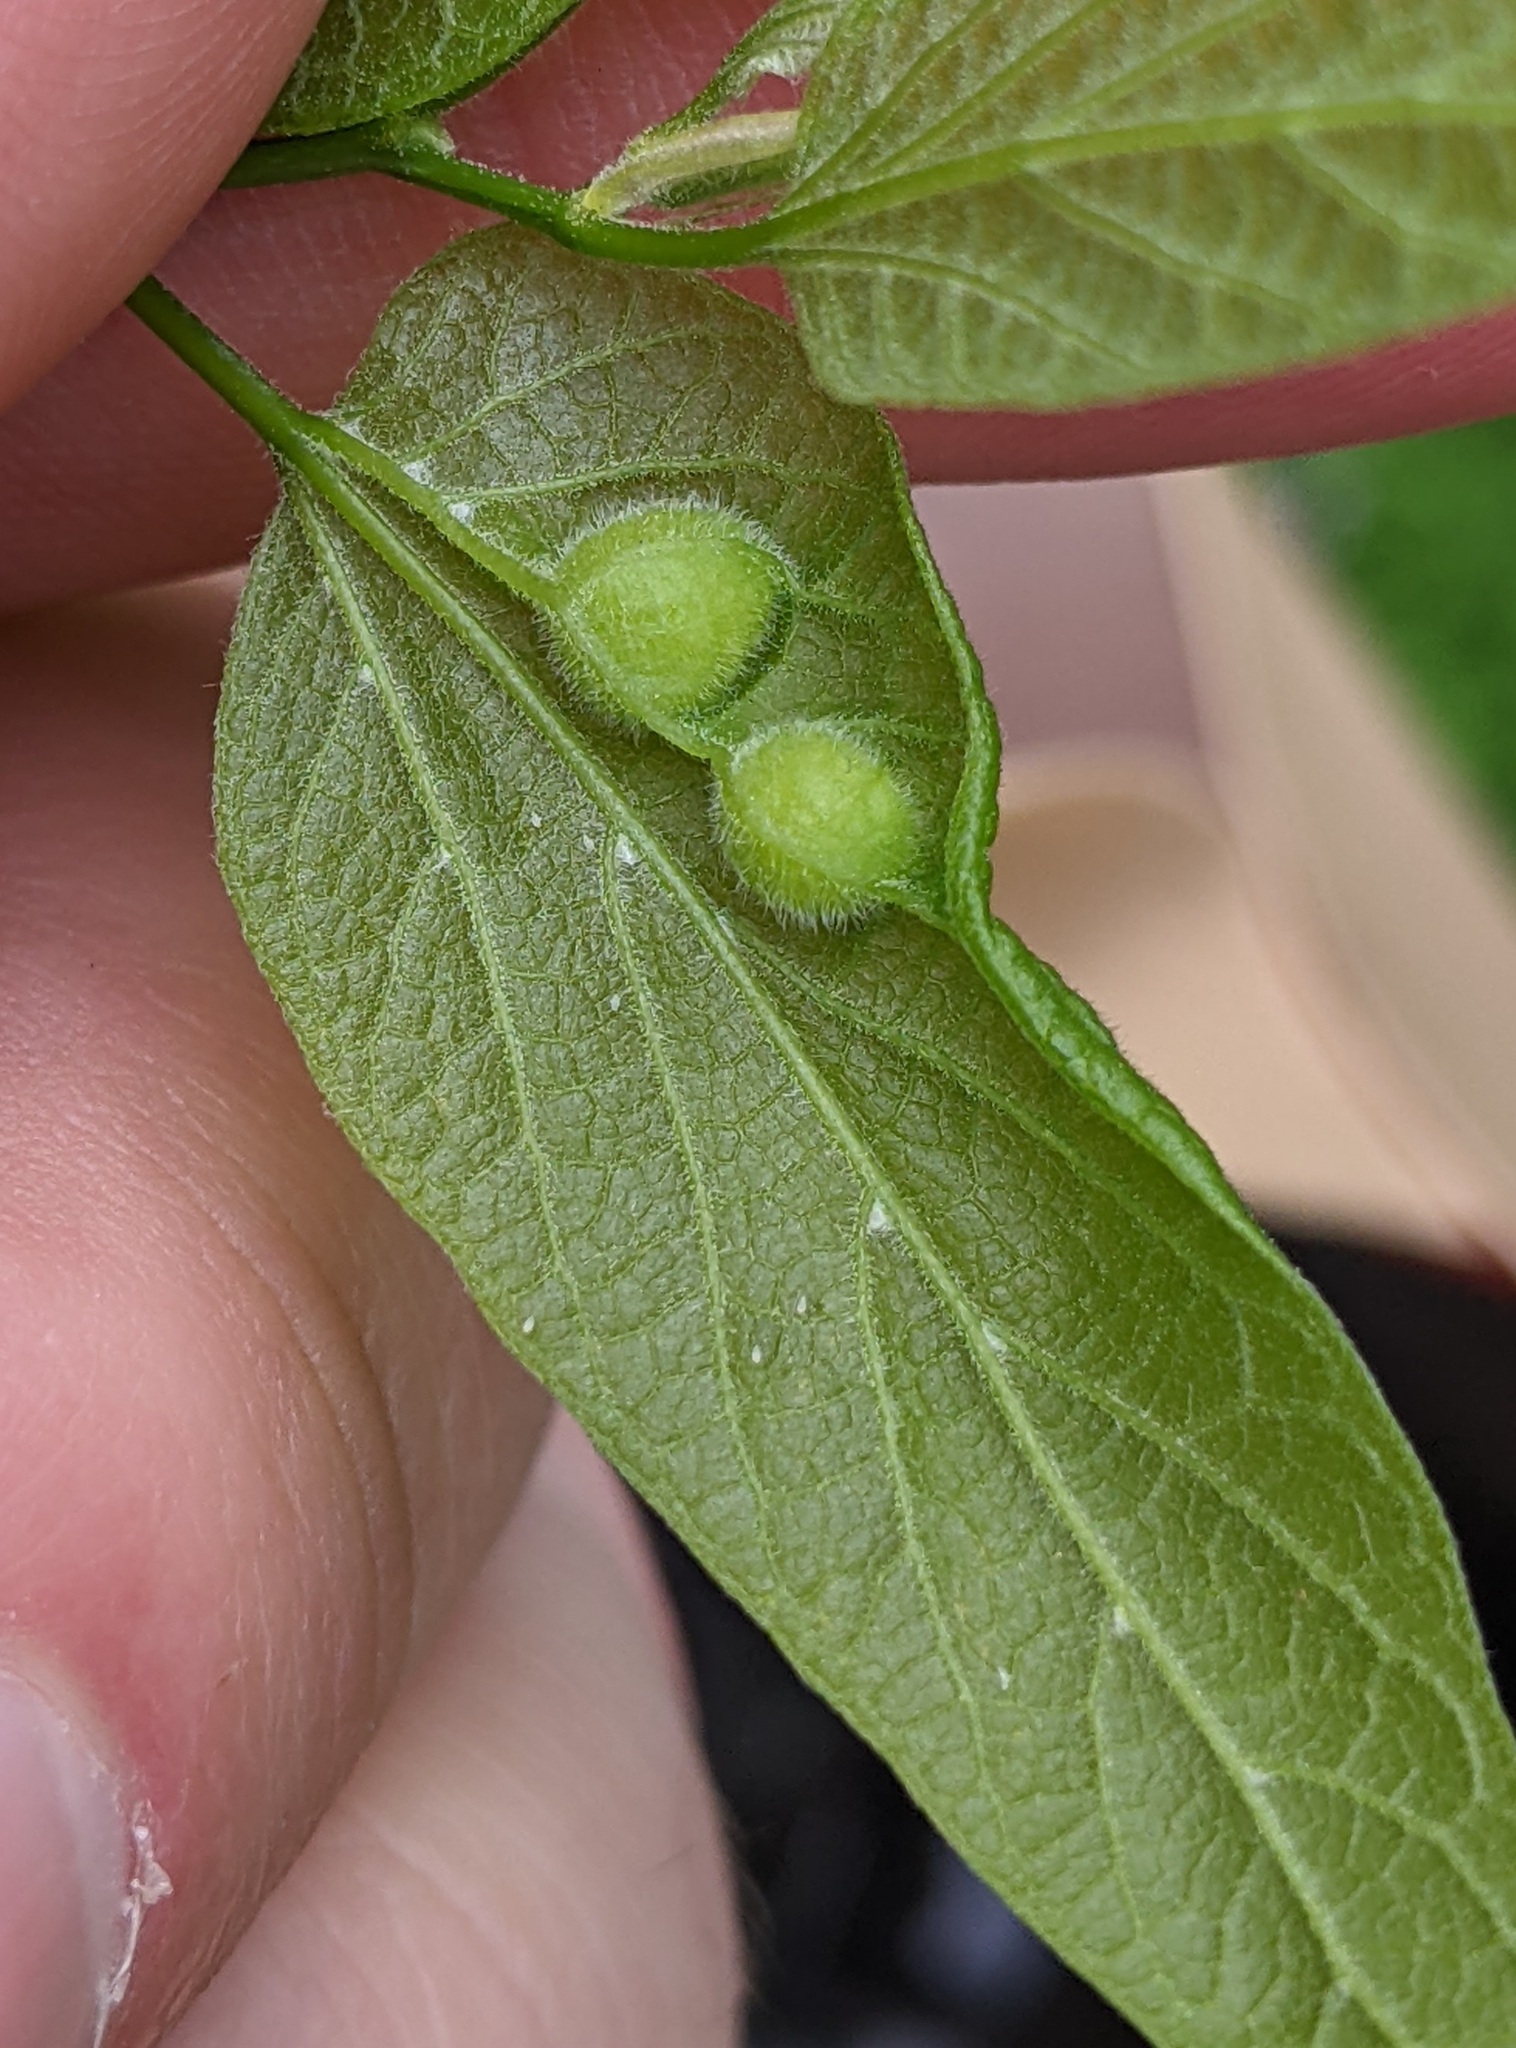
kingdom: Animalia
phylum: Arthropoda
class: Insecta
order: Diptera
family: Cecidomyiidae
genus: Peracecis
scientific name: Peracecis fugitiva
